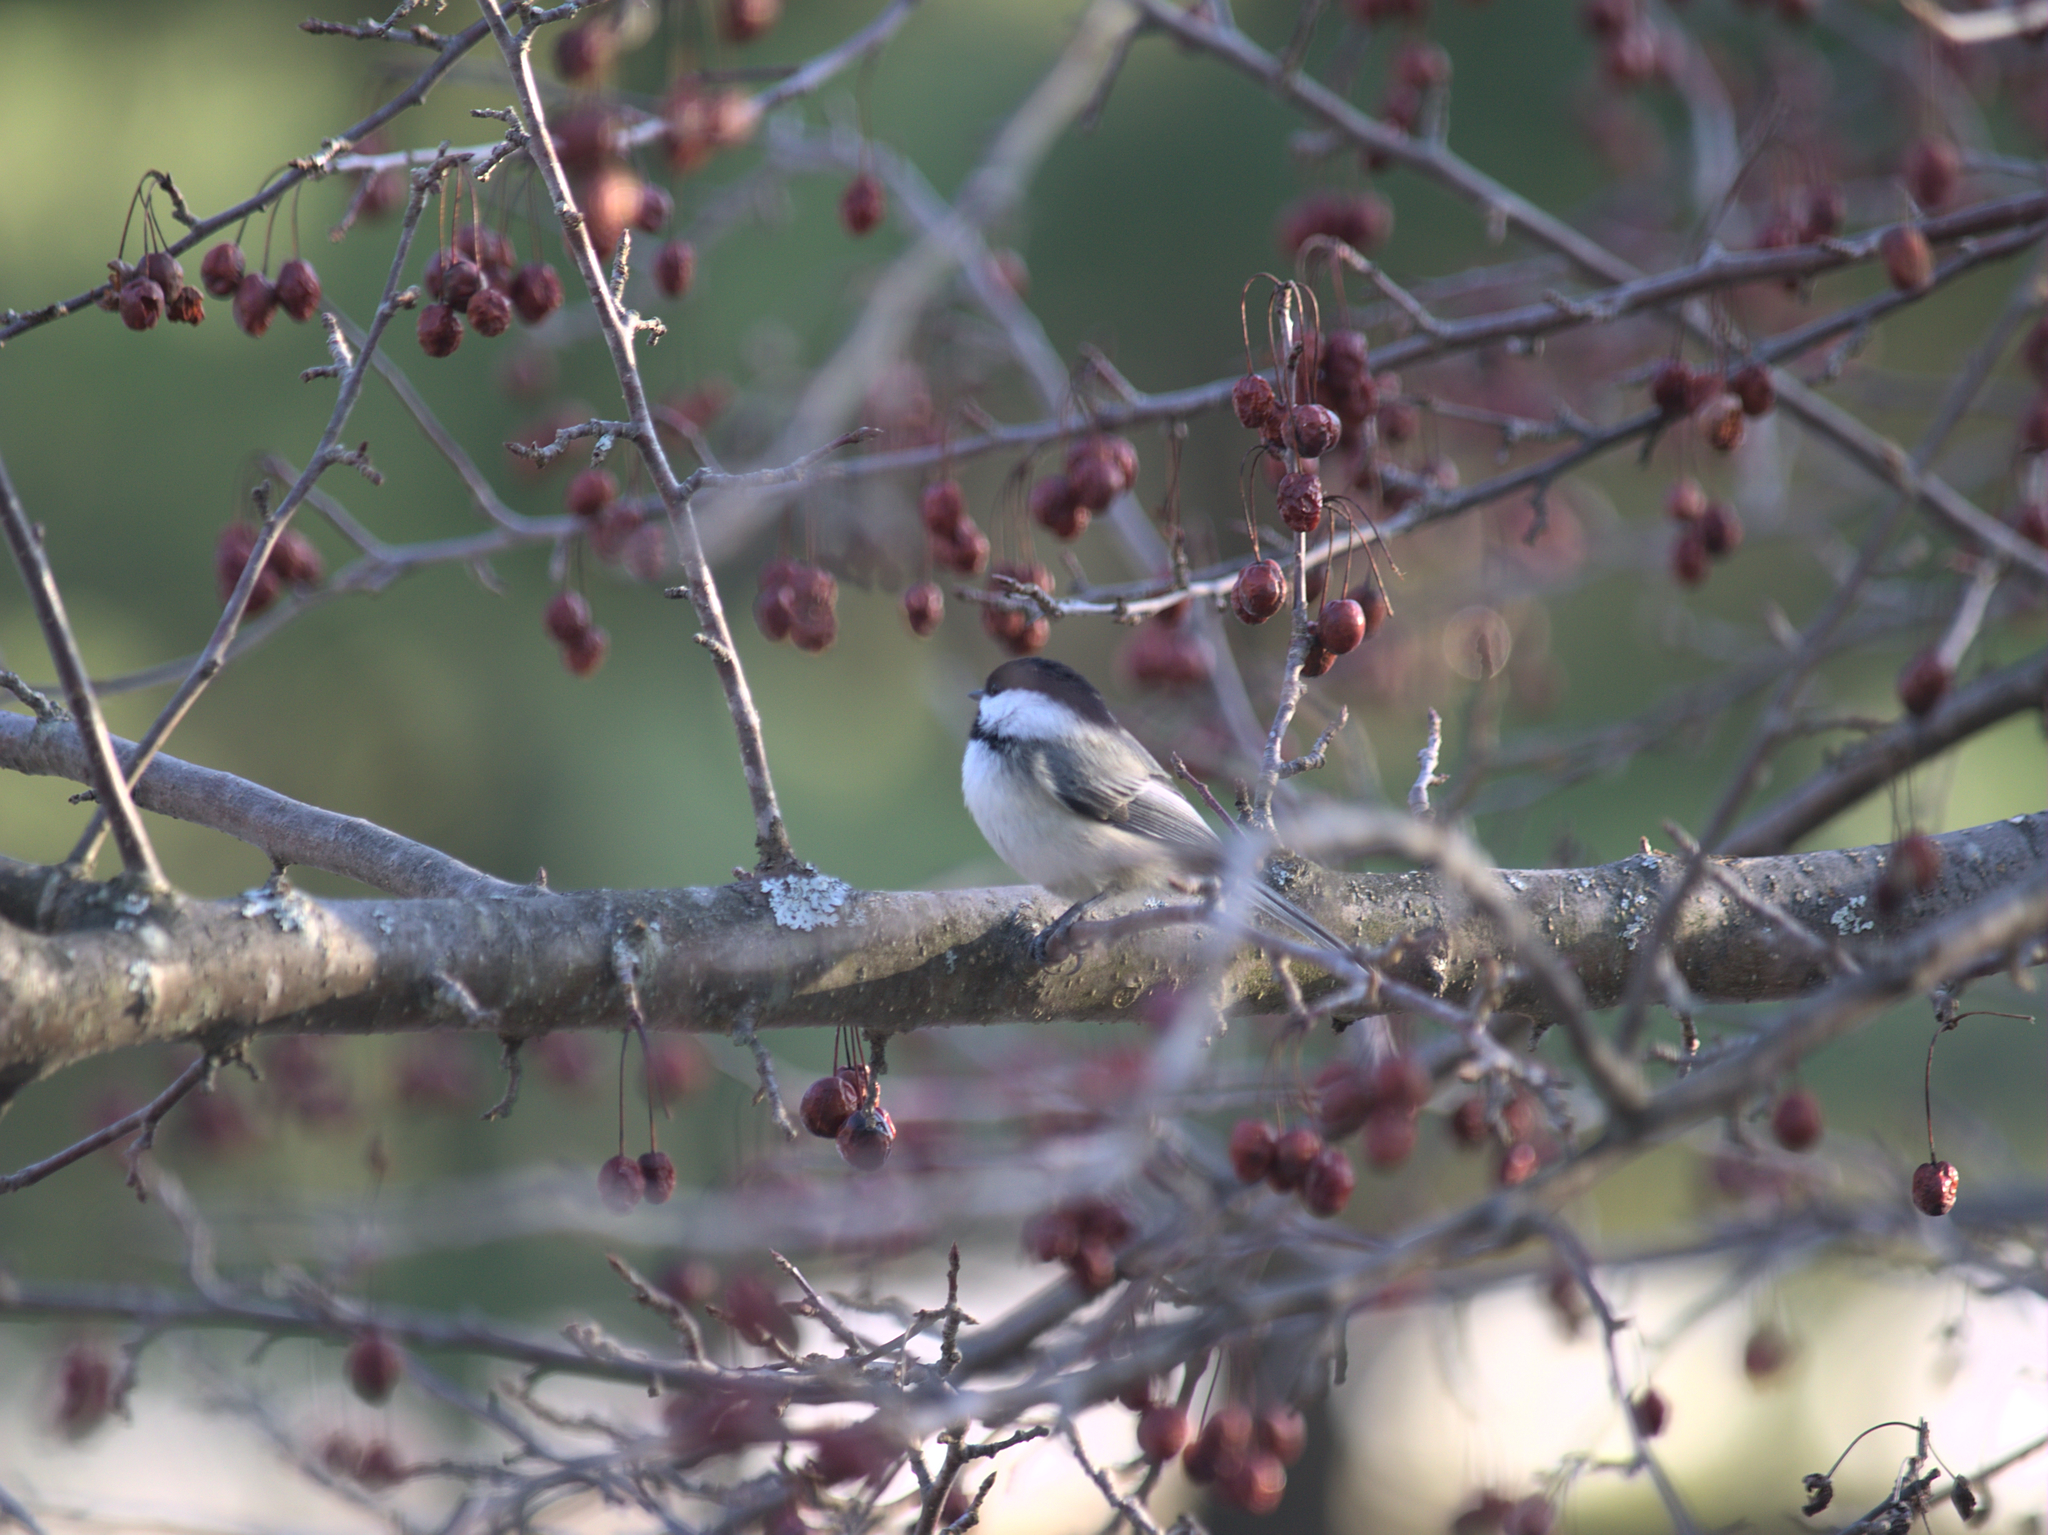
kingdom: Animalia
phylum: Chordata
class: Aves
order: Passeriformes
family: Paridae
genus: Poecile
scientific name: Poecile atricapillus
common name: Black-capped chickadee
